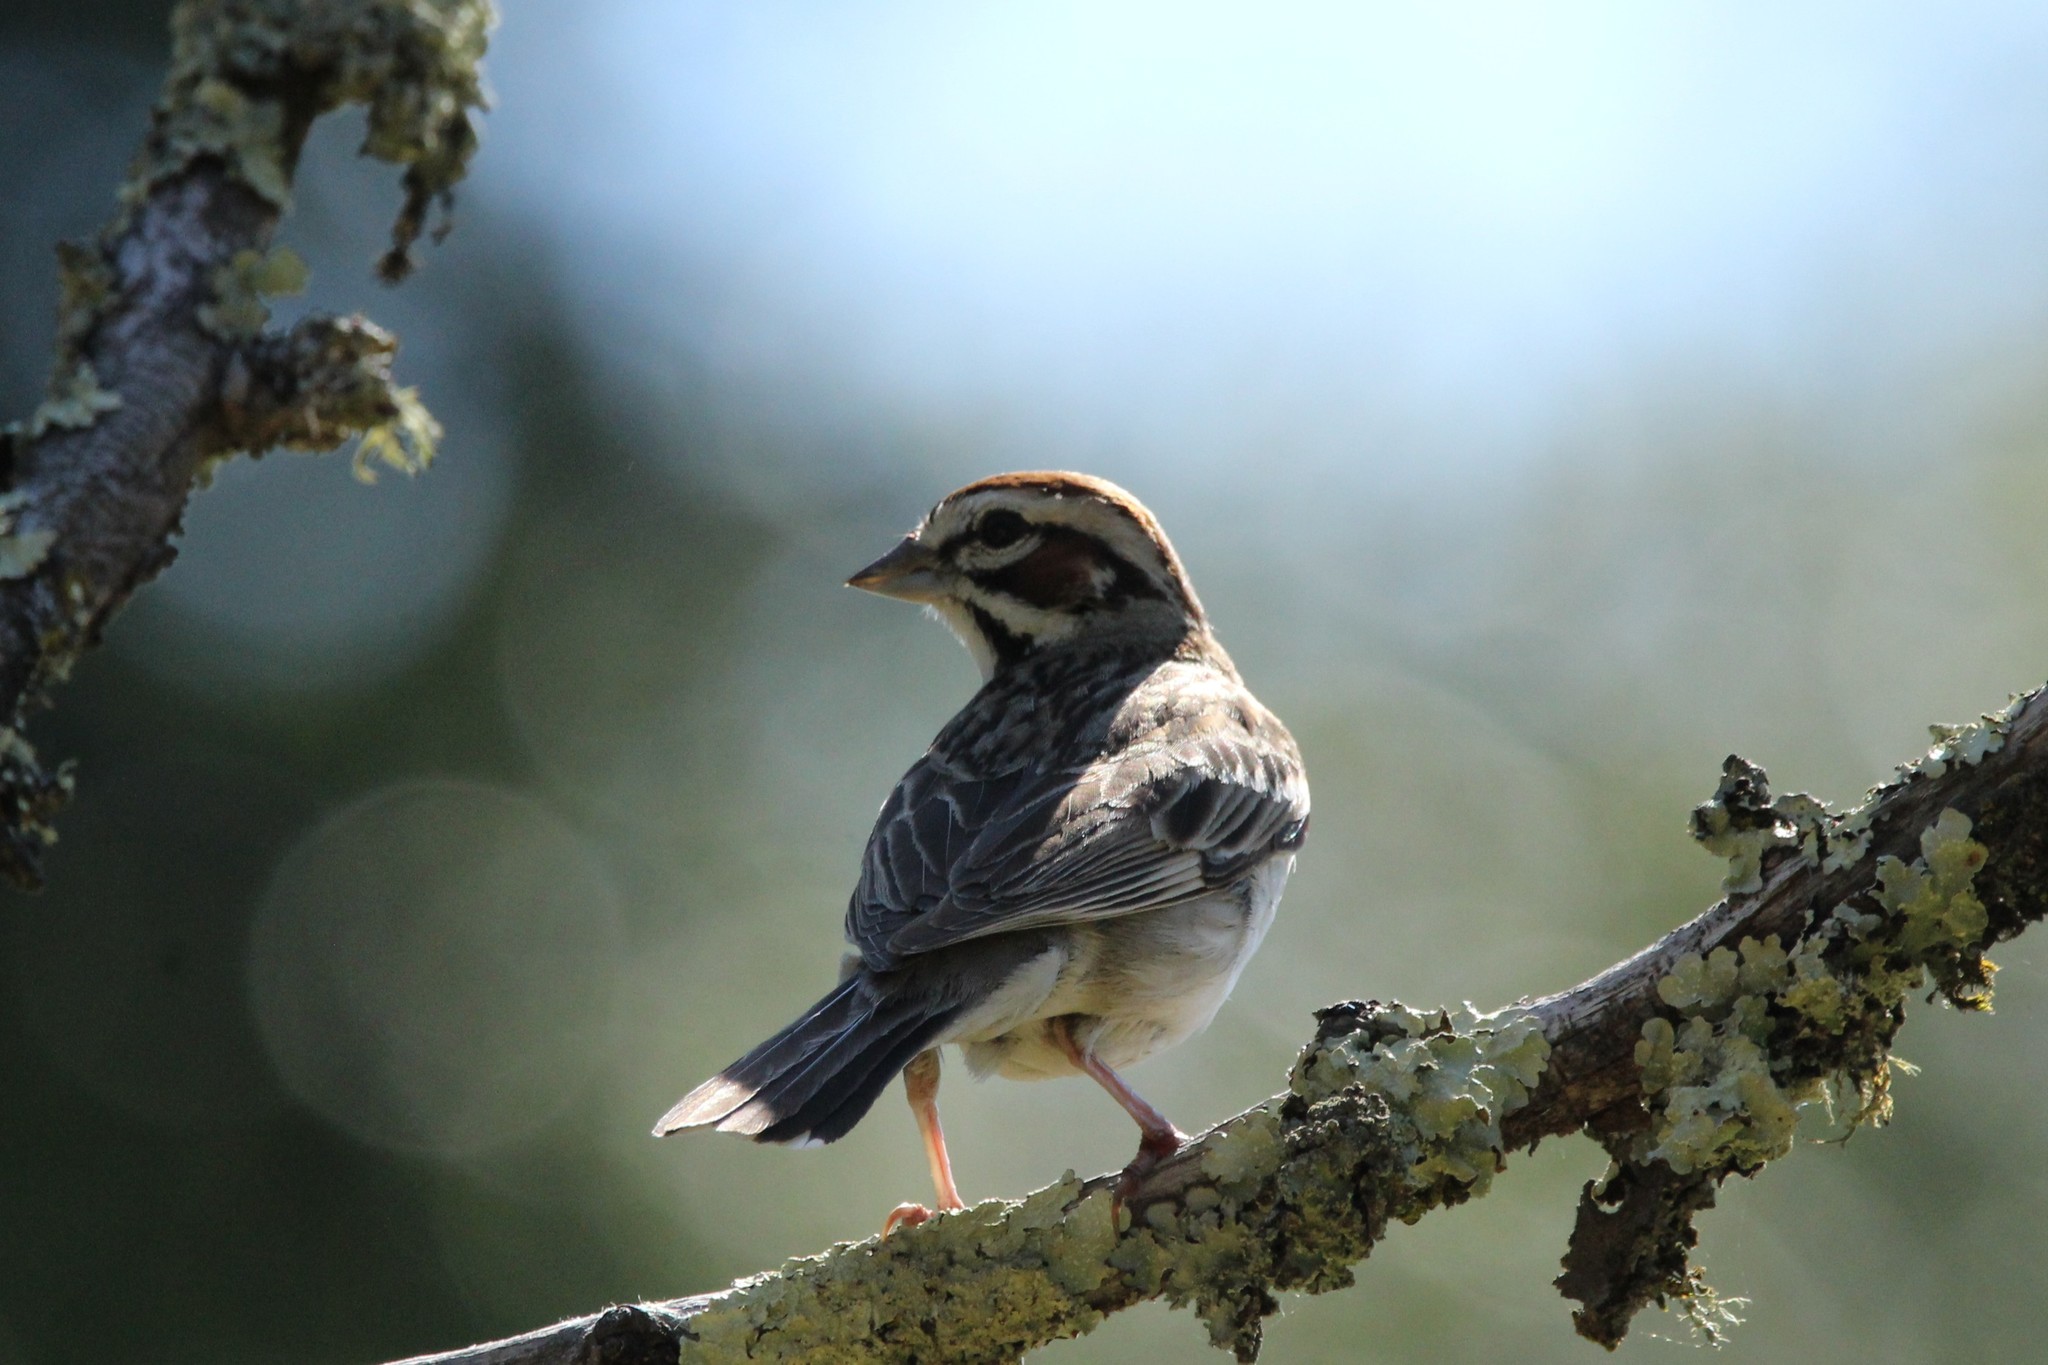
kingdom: Animalia
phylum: Chordata
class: Aves
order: Passeriformes
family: Passerellidae
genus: Chondestes
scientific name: Chondestes grammacus
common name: Lark sparrow
